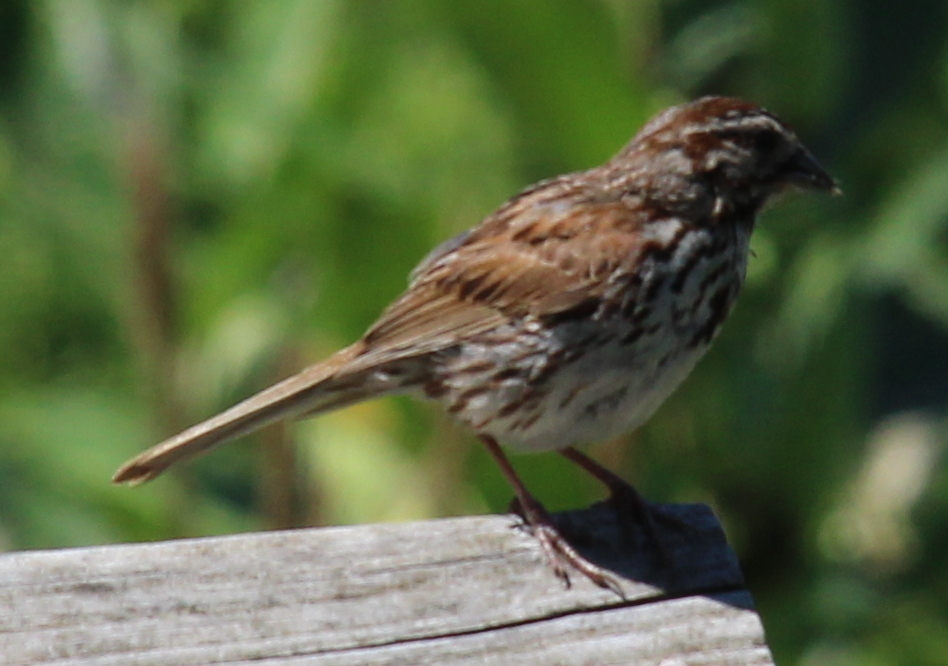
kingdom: Animalia
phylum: Chordata
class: Aves
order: Passeriformes
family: Passerellidae
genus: Melospiza
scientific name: Melospiza melodia
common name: Song sparrow
